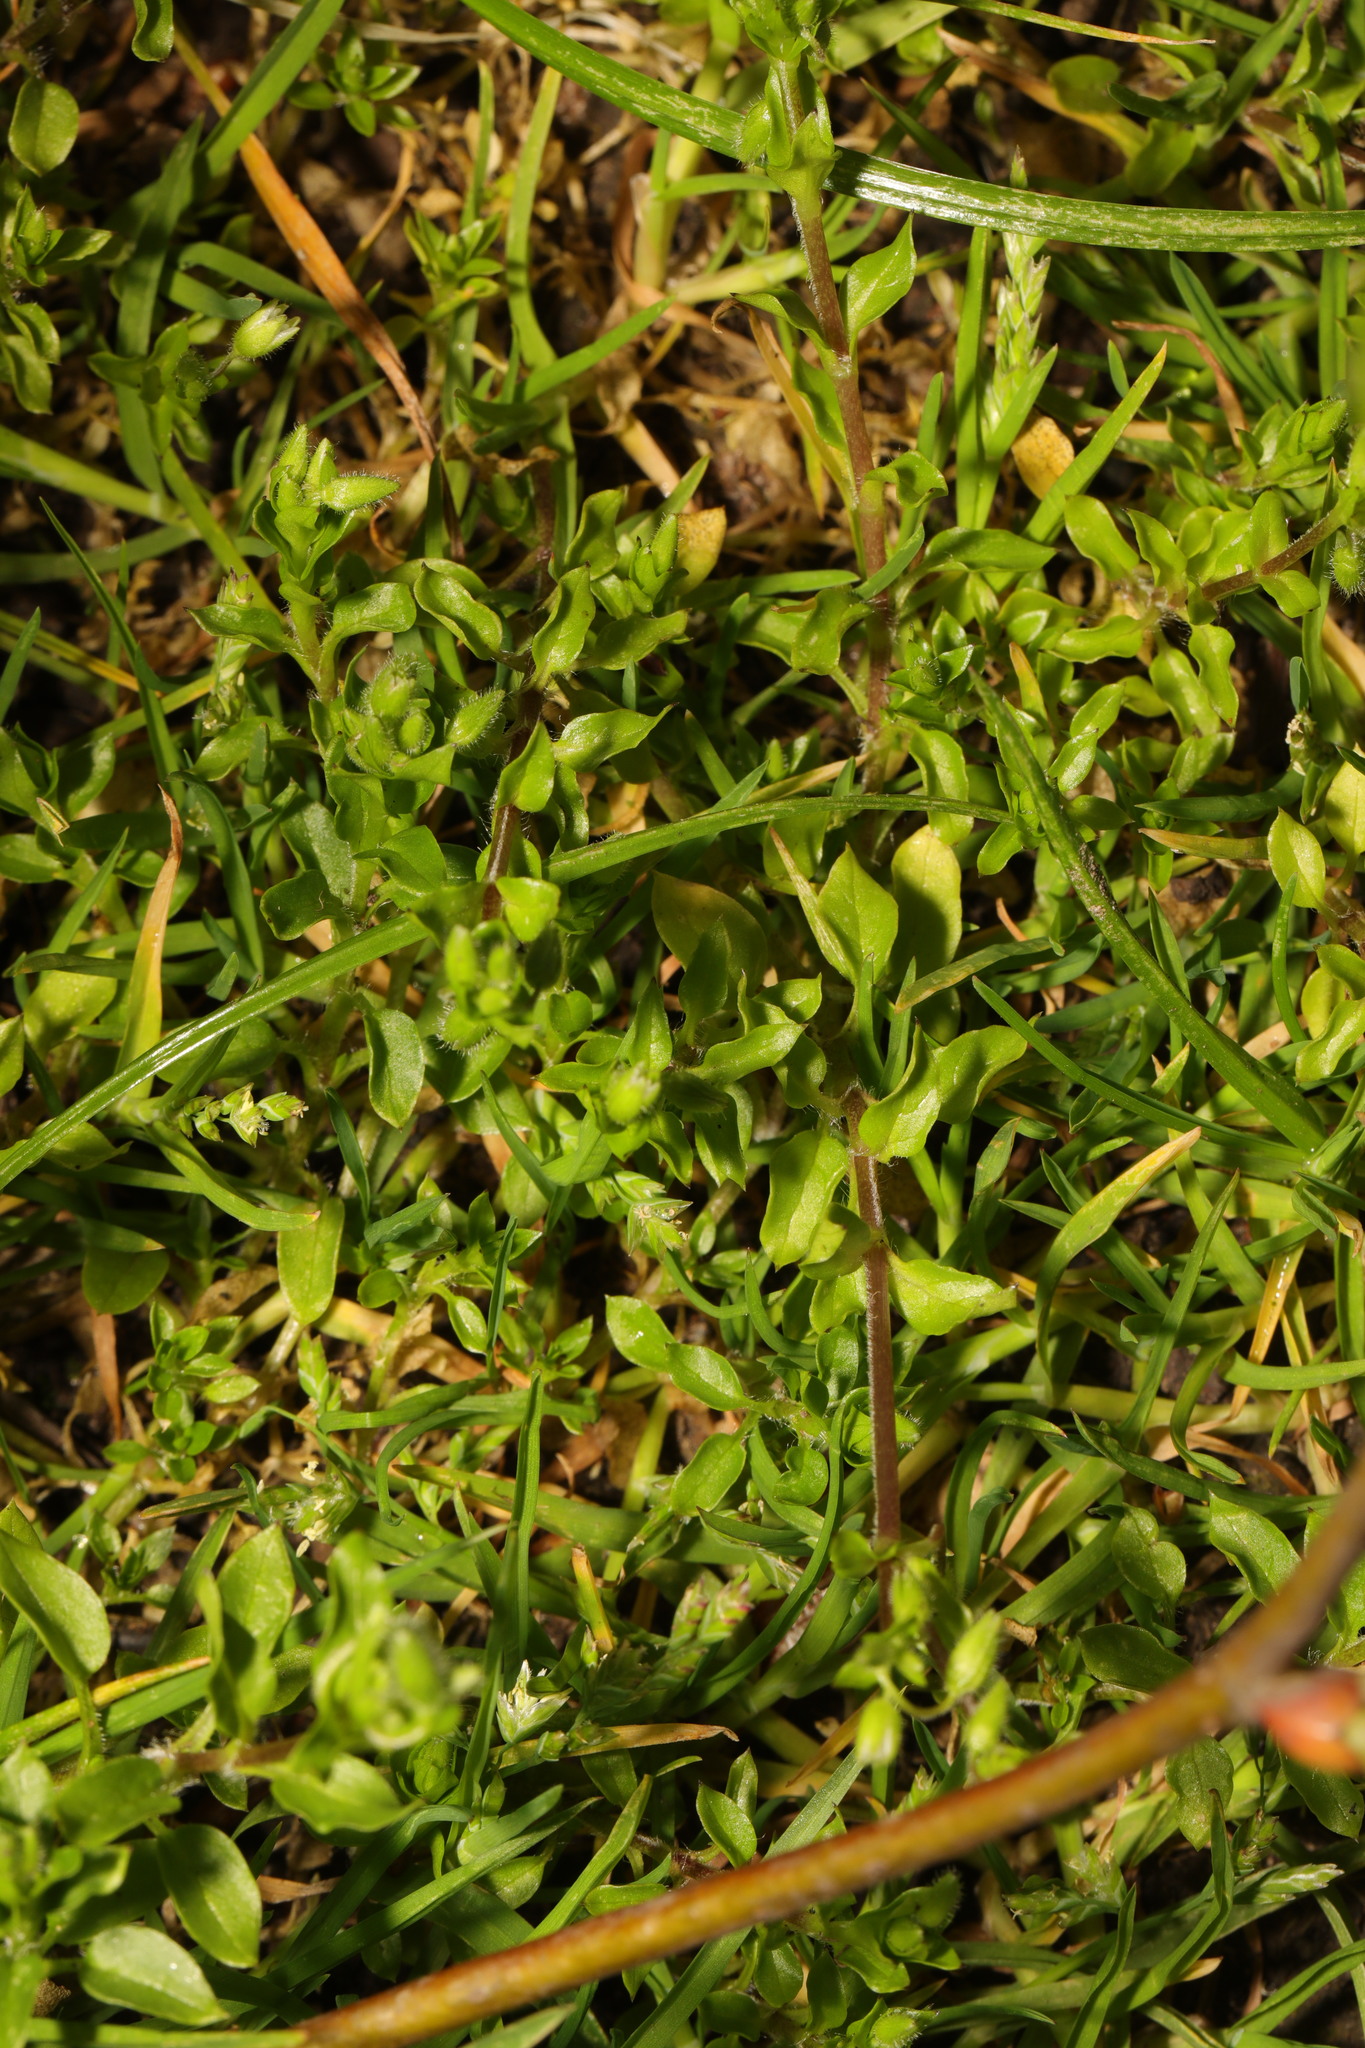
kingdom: Plantae
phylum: Tracheophyta
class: Magnoliopsida
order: Caryophyllales
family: Caryophyllaceae
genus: Stellaria
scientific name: Stellaria media
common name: Common chickweed
